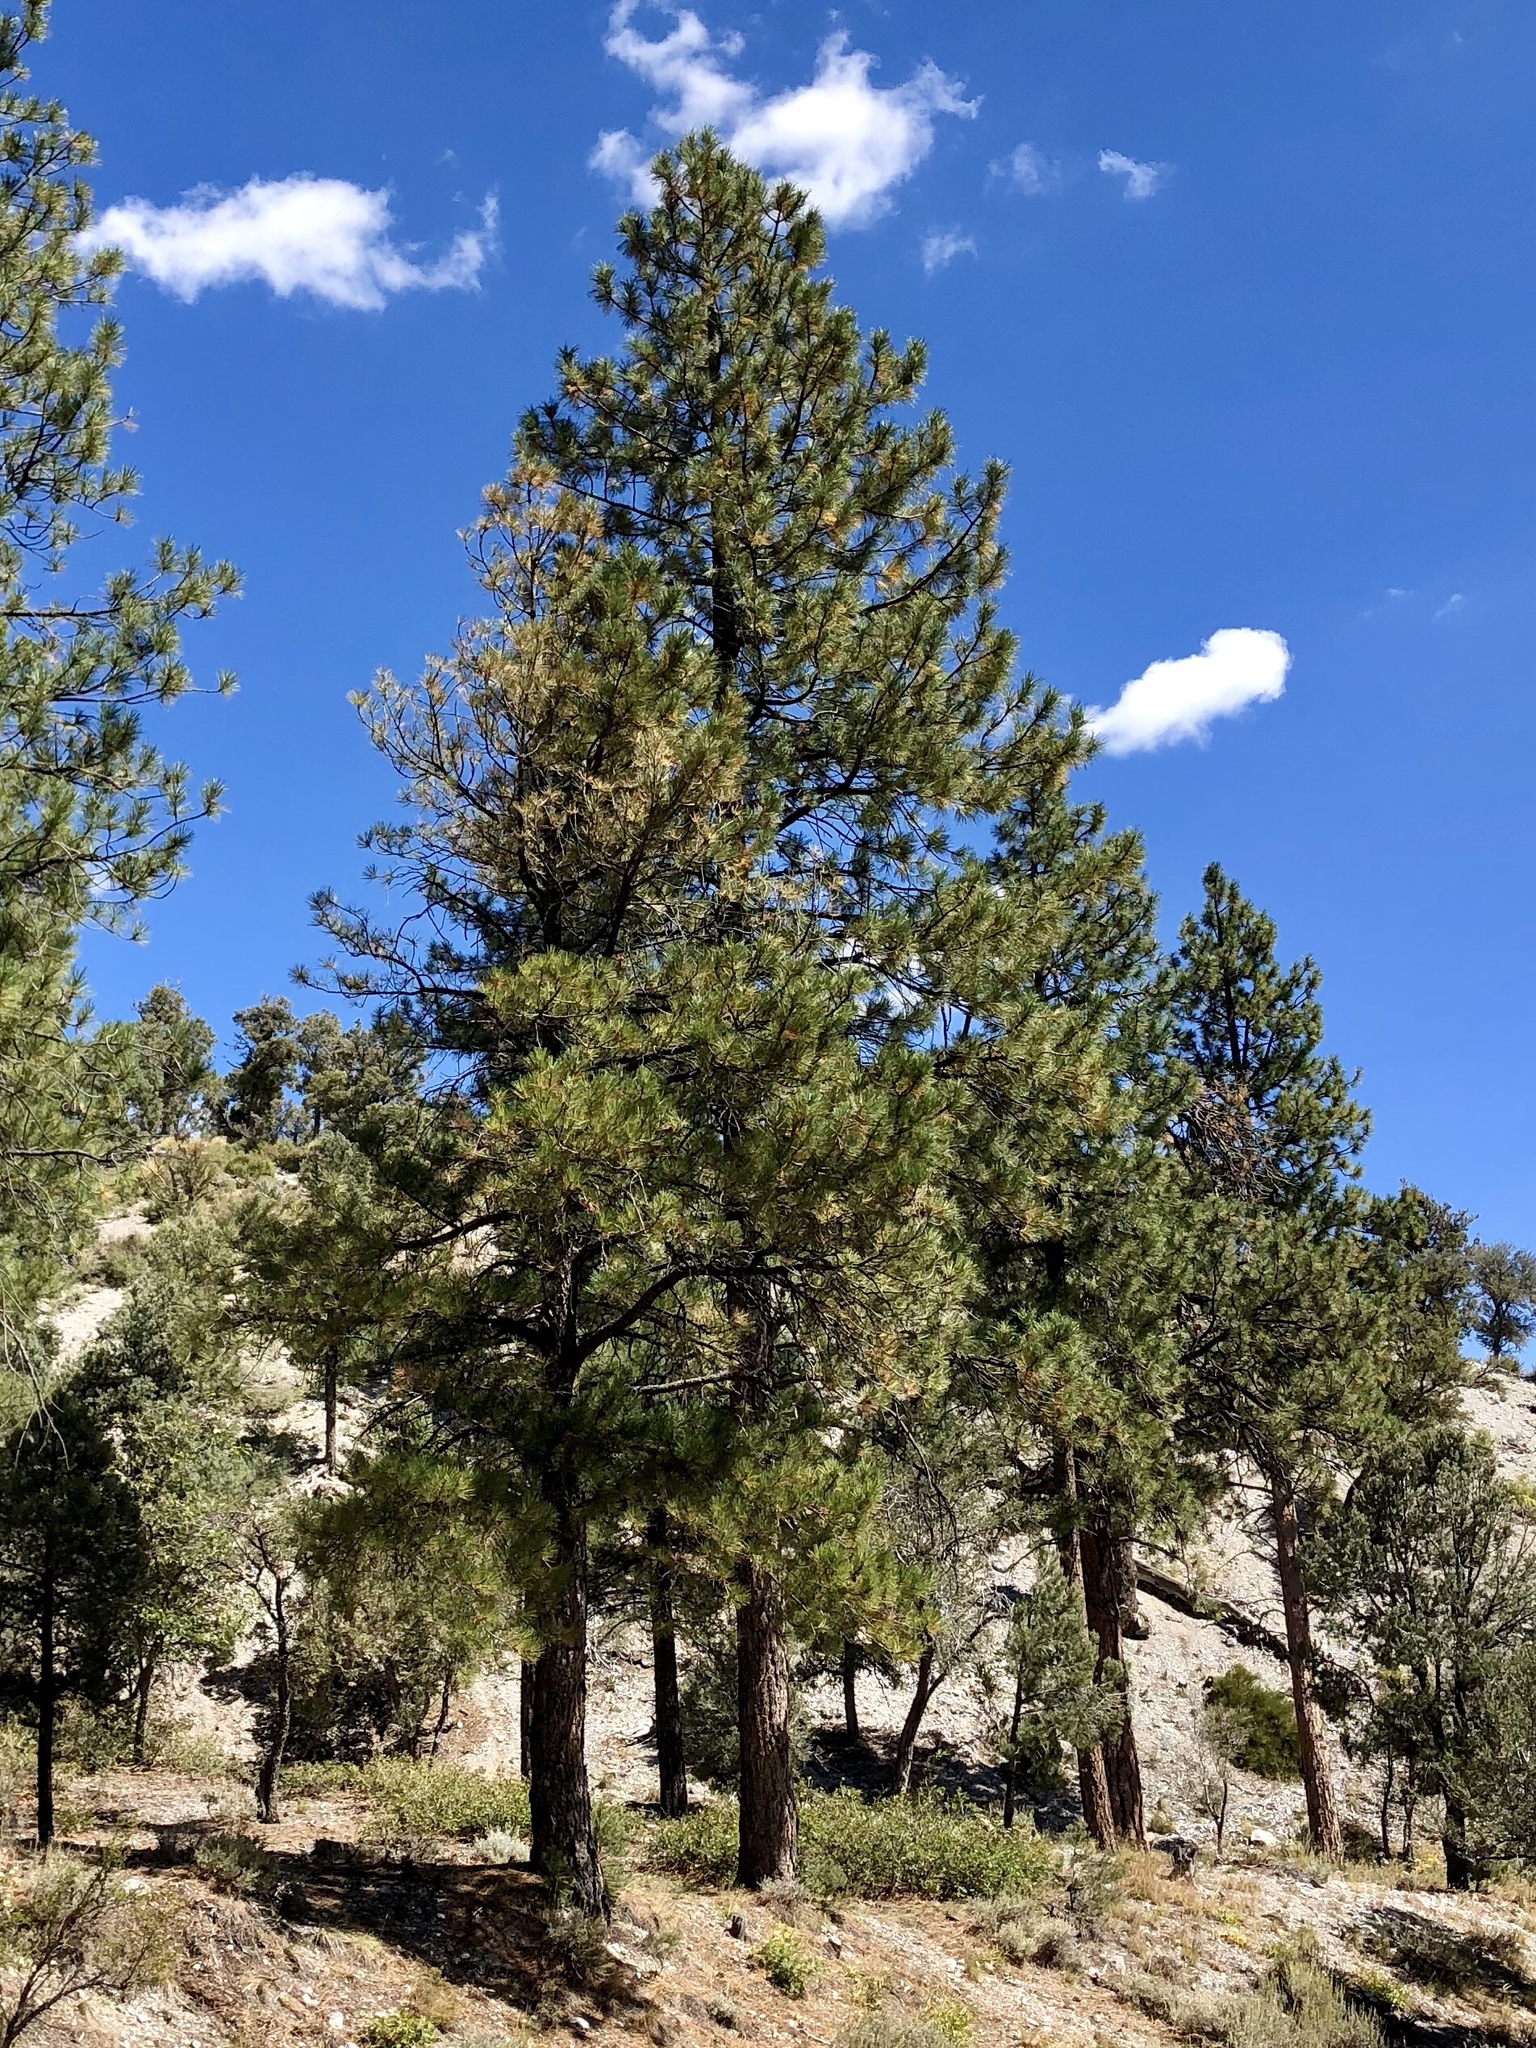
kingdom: Plantae
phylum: Tracheophyta
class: Pinopsida
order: Pinales
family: Pinaceae
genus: Pinus
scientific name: Pinus ponderosa
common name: Western yellow-pine
